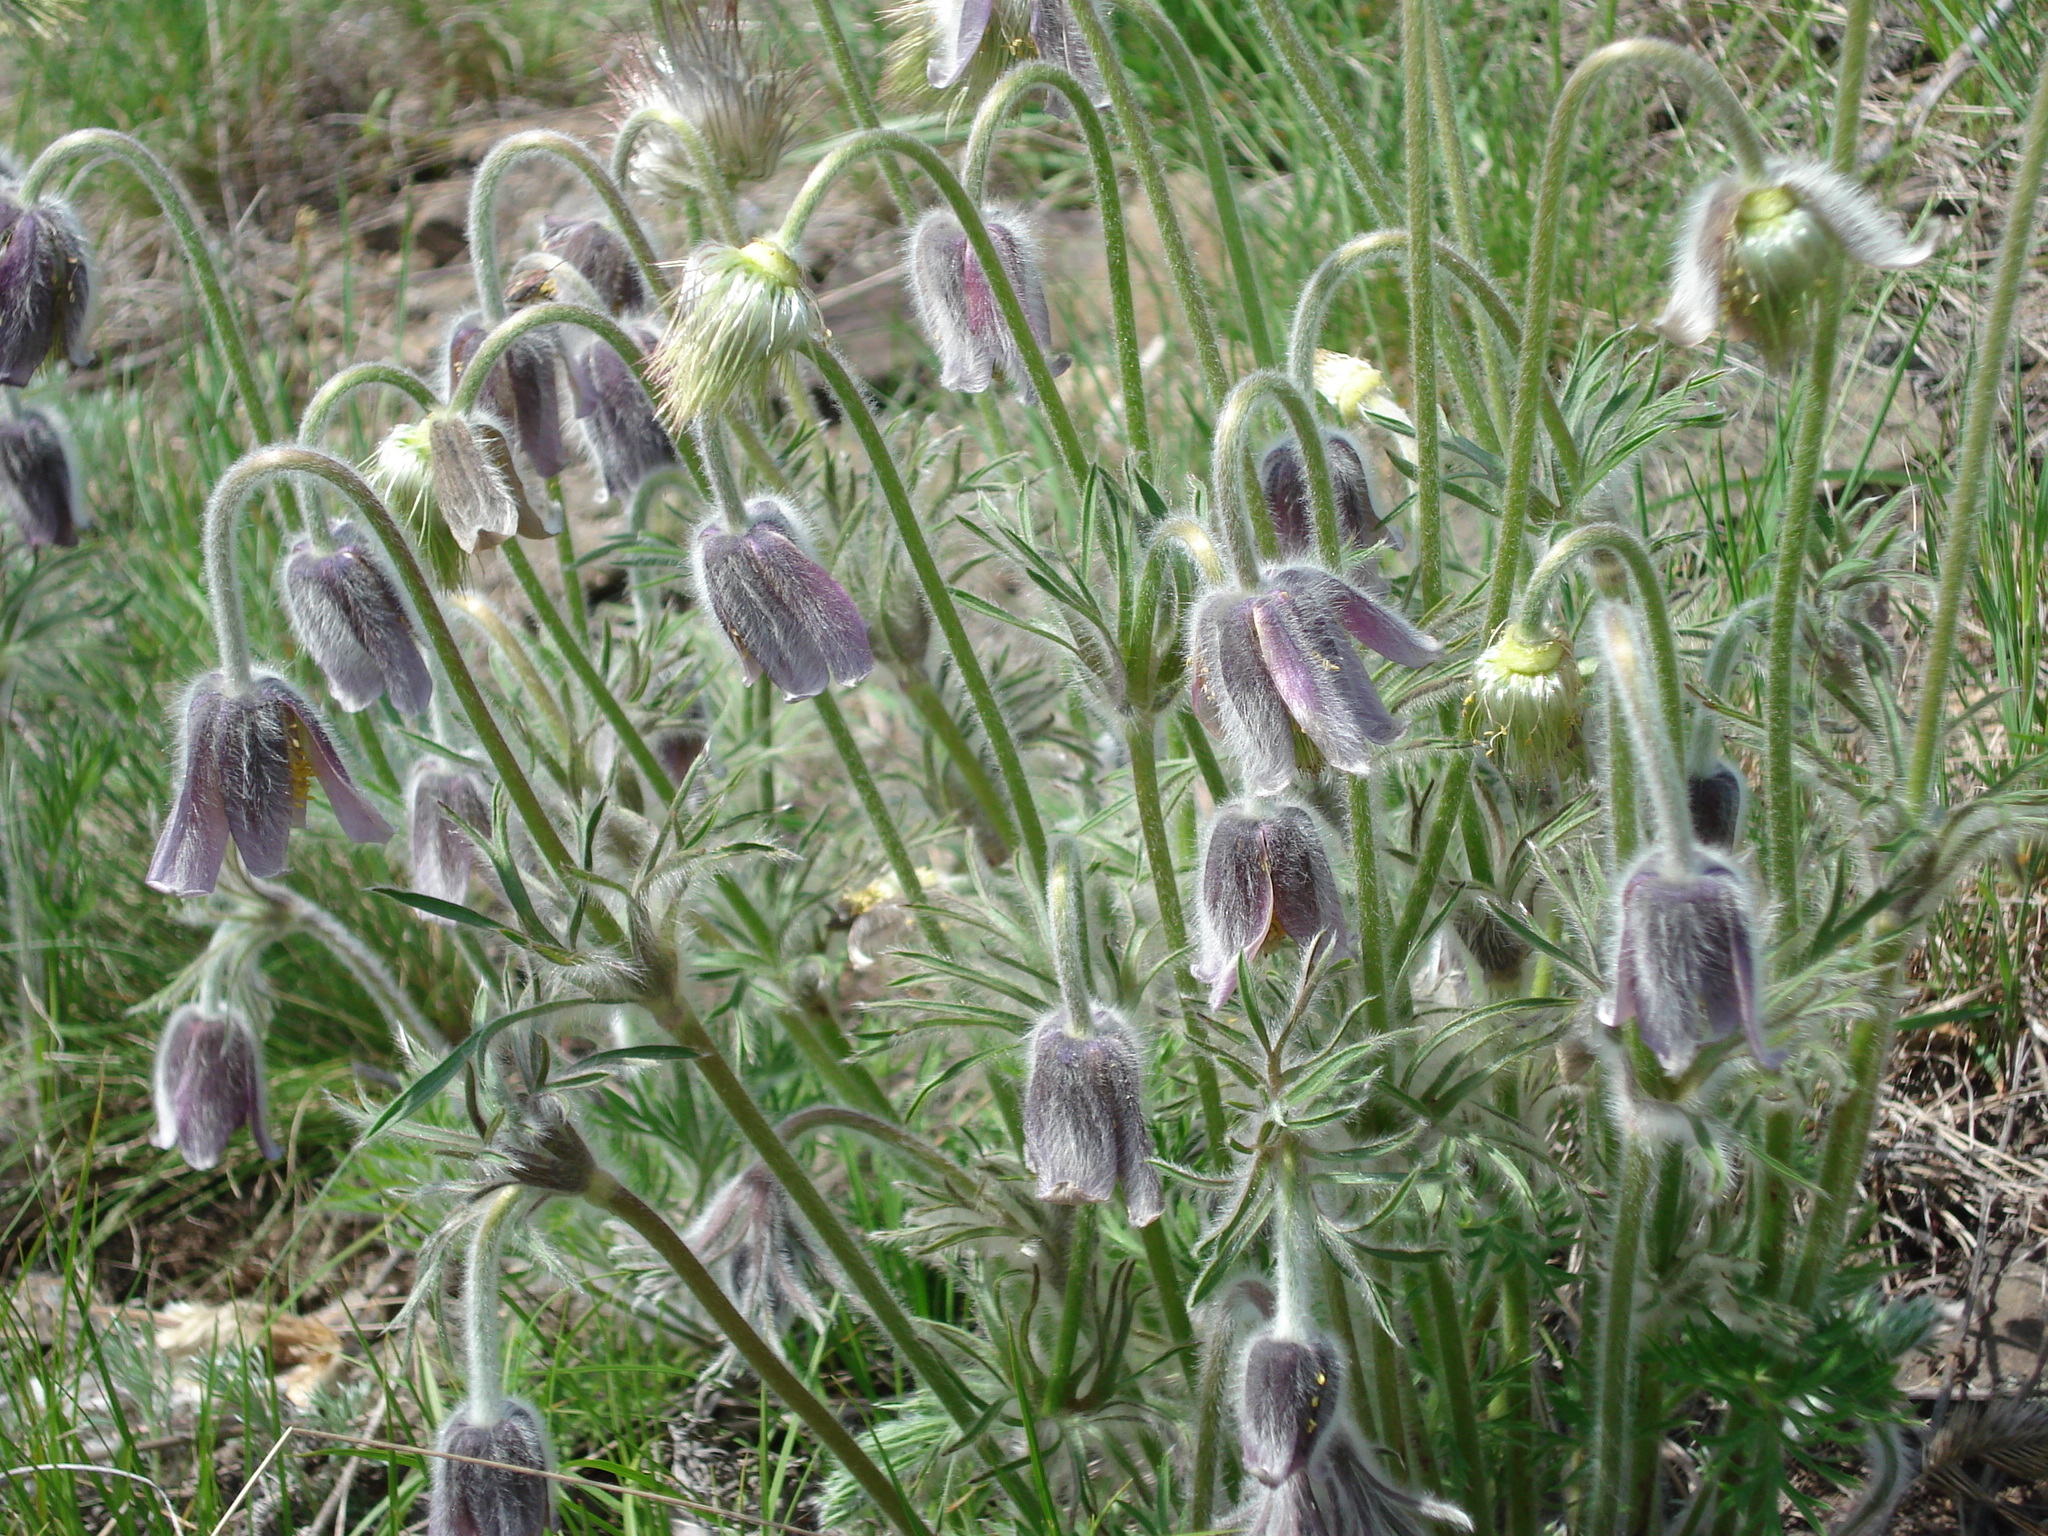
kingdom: Plantae
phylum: Tracheophyta
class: Magnoliopsida
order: Ranunculales
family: Ranunculaceae
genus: Pulsatilla
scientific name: Pulsatilla pratensis
